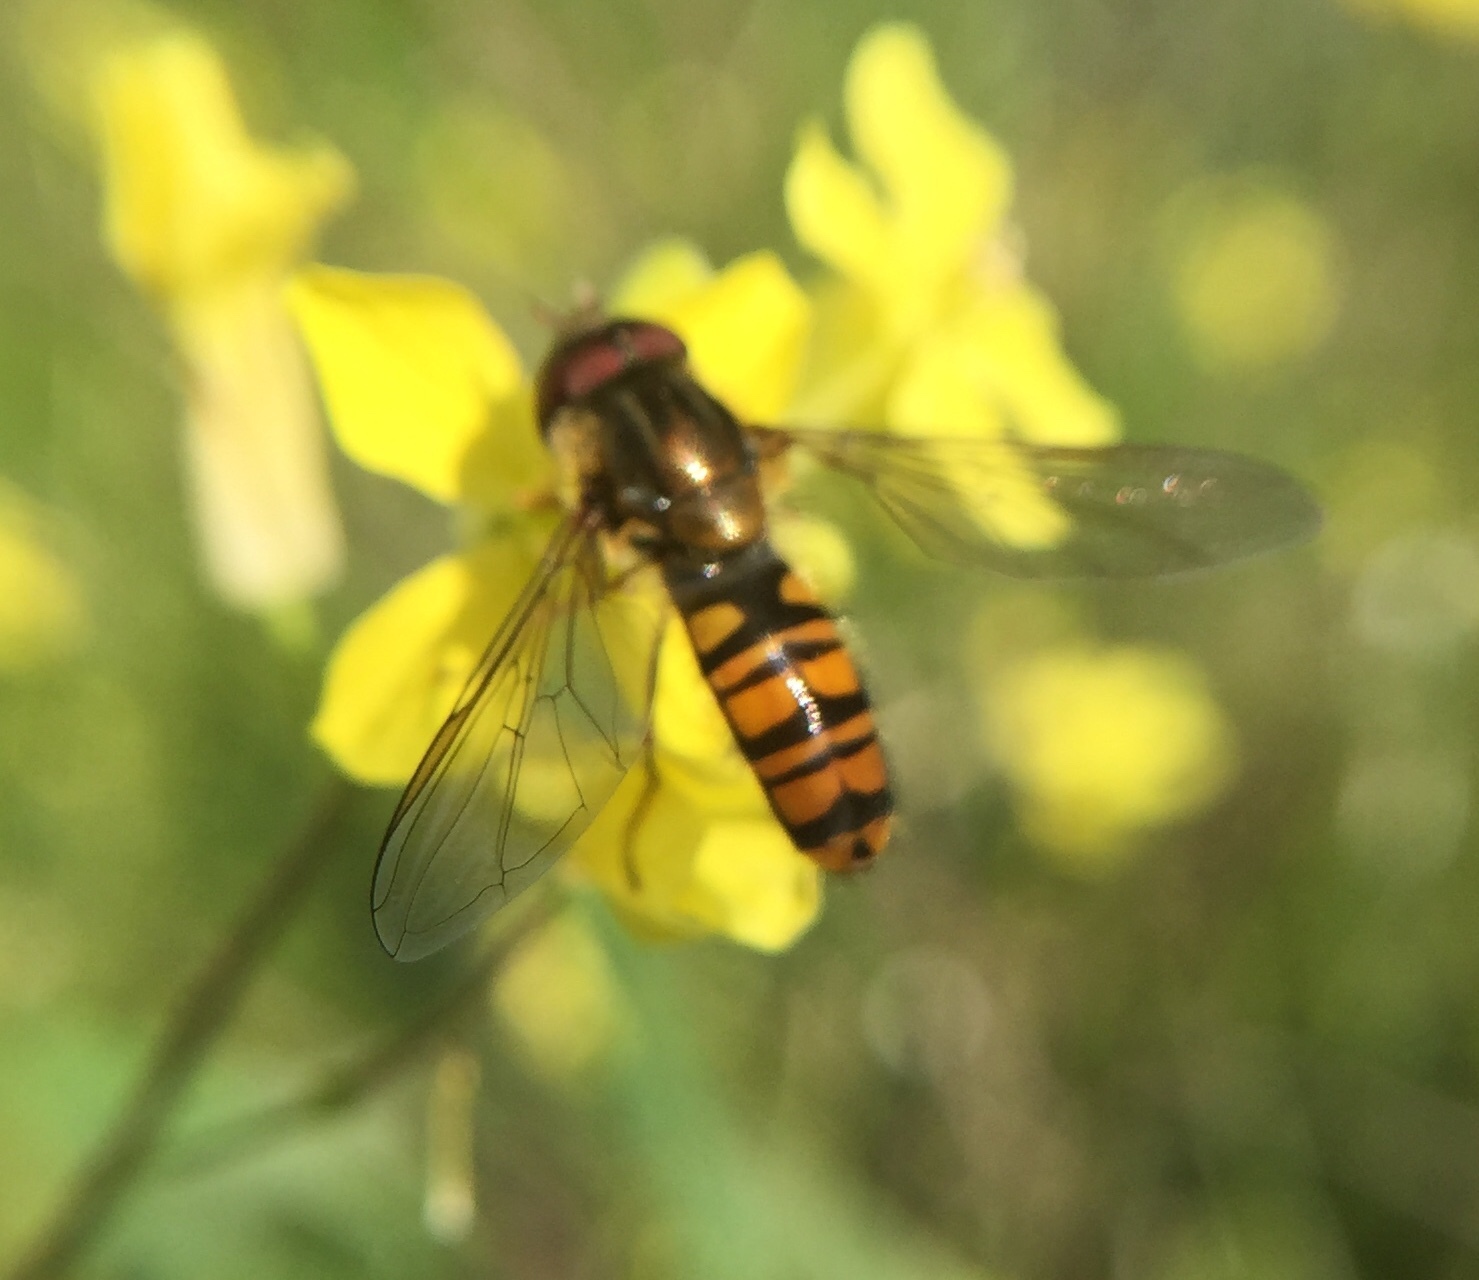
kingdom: Animalia
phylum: Arthropoda
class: Insecta
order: Diptera
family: Syrphidae
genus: Episyrphus
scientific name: Episyrphus balteatus
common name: Marmalade hoverfly
